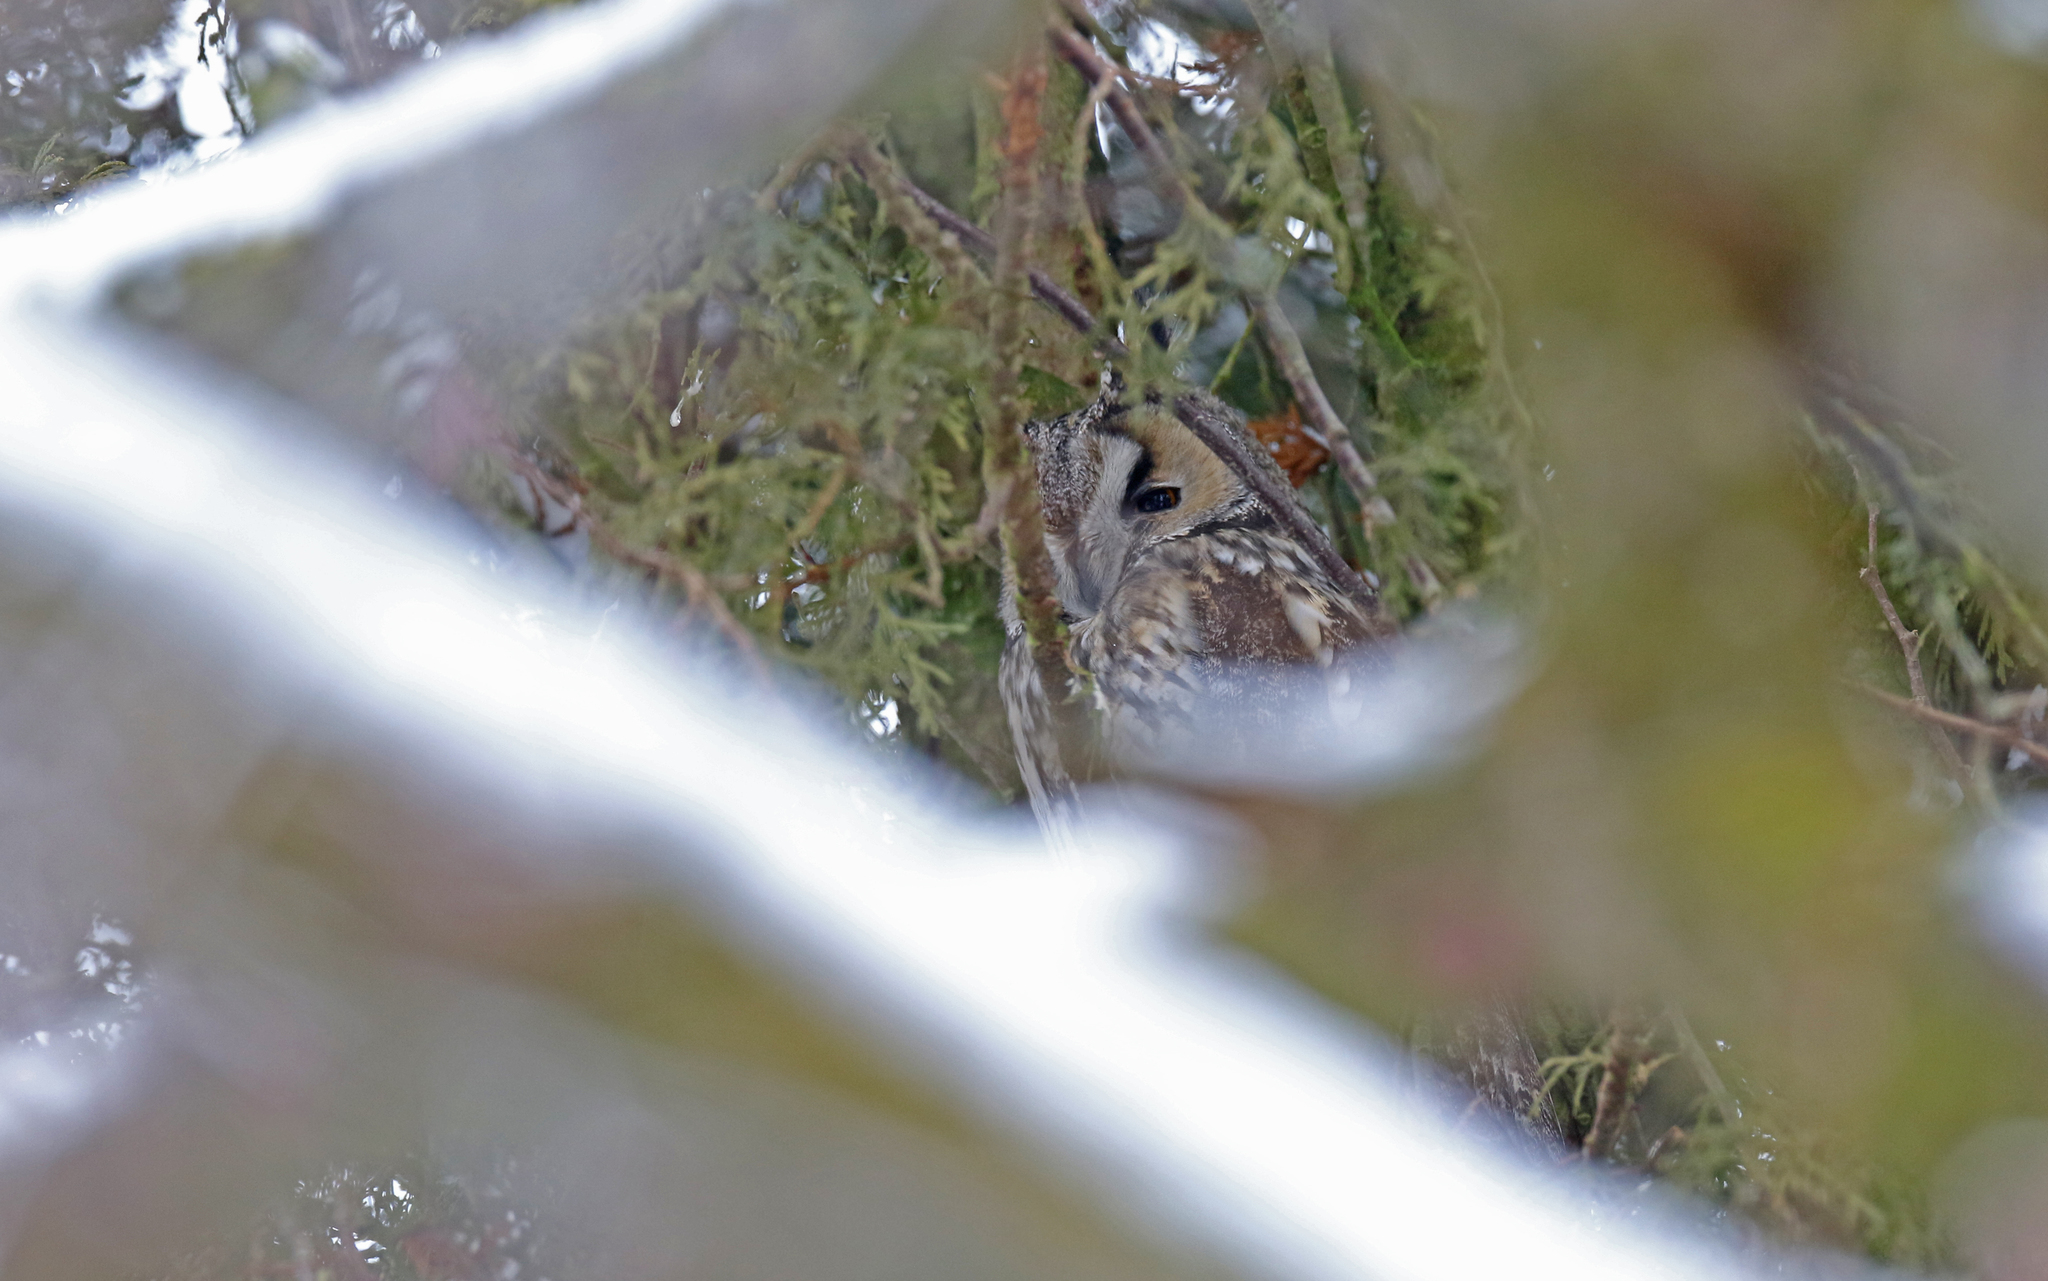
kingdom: Animalia
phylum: Chordata
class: Aves
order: Strigiformes
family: Strigidae
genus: Asio
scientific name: Asio otus
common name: Long-eared owl
